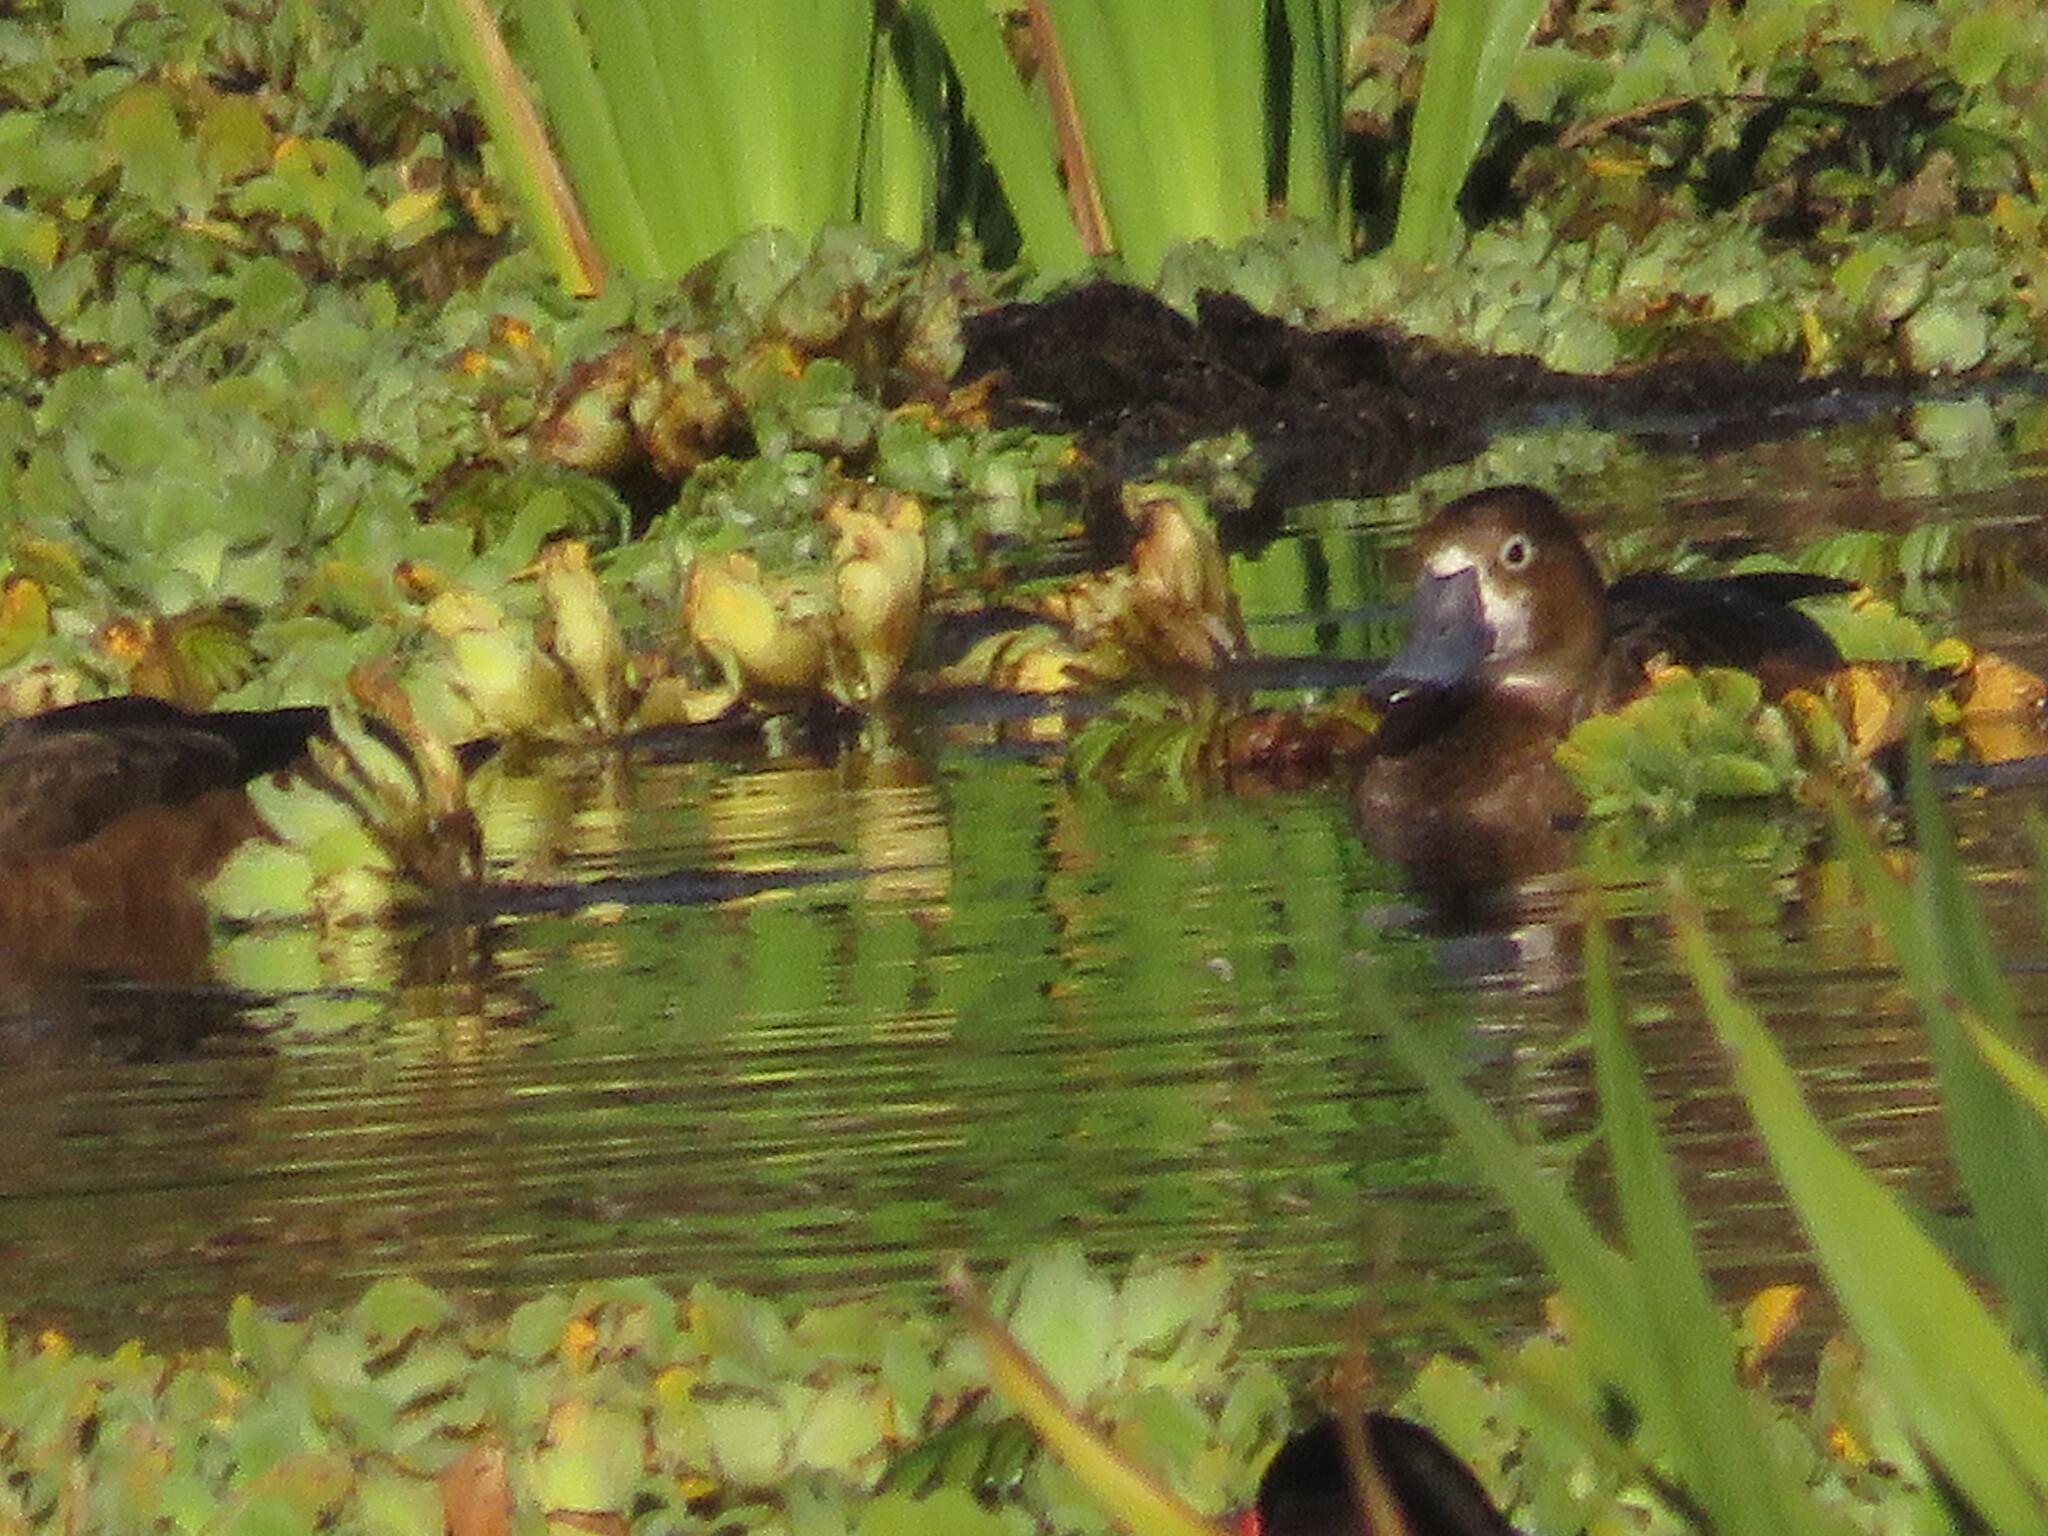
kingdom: Animalia
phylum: Chordata
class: Aves
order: Anseriformes
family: Anatidae
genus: Netta
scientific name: Netta peposaca
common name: Rosy-billed pochard
